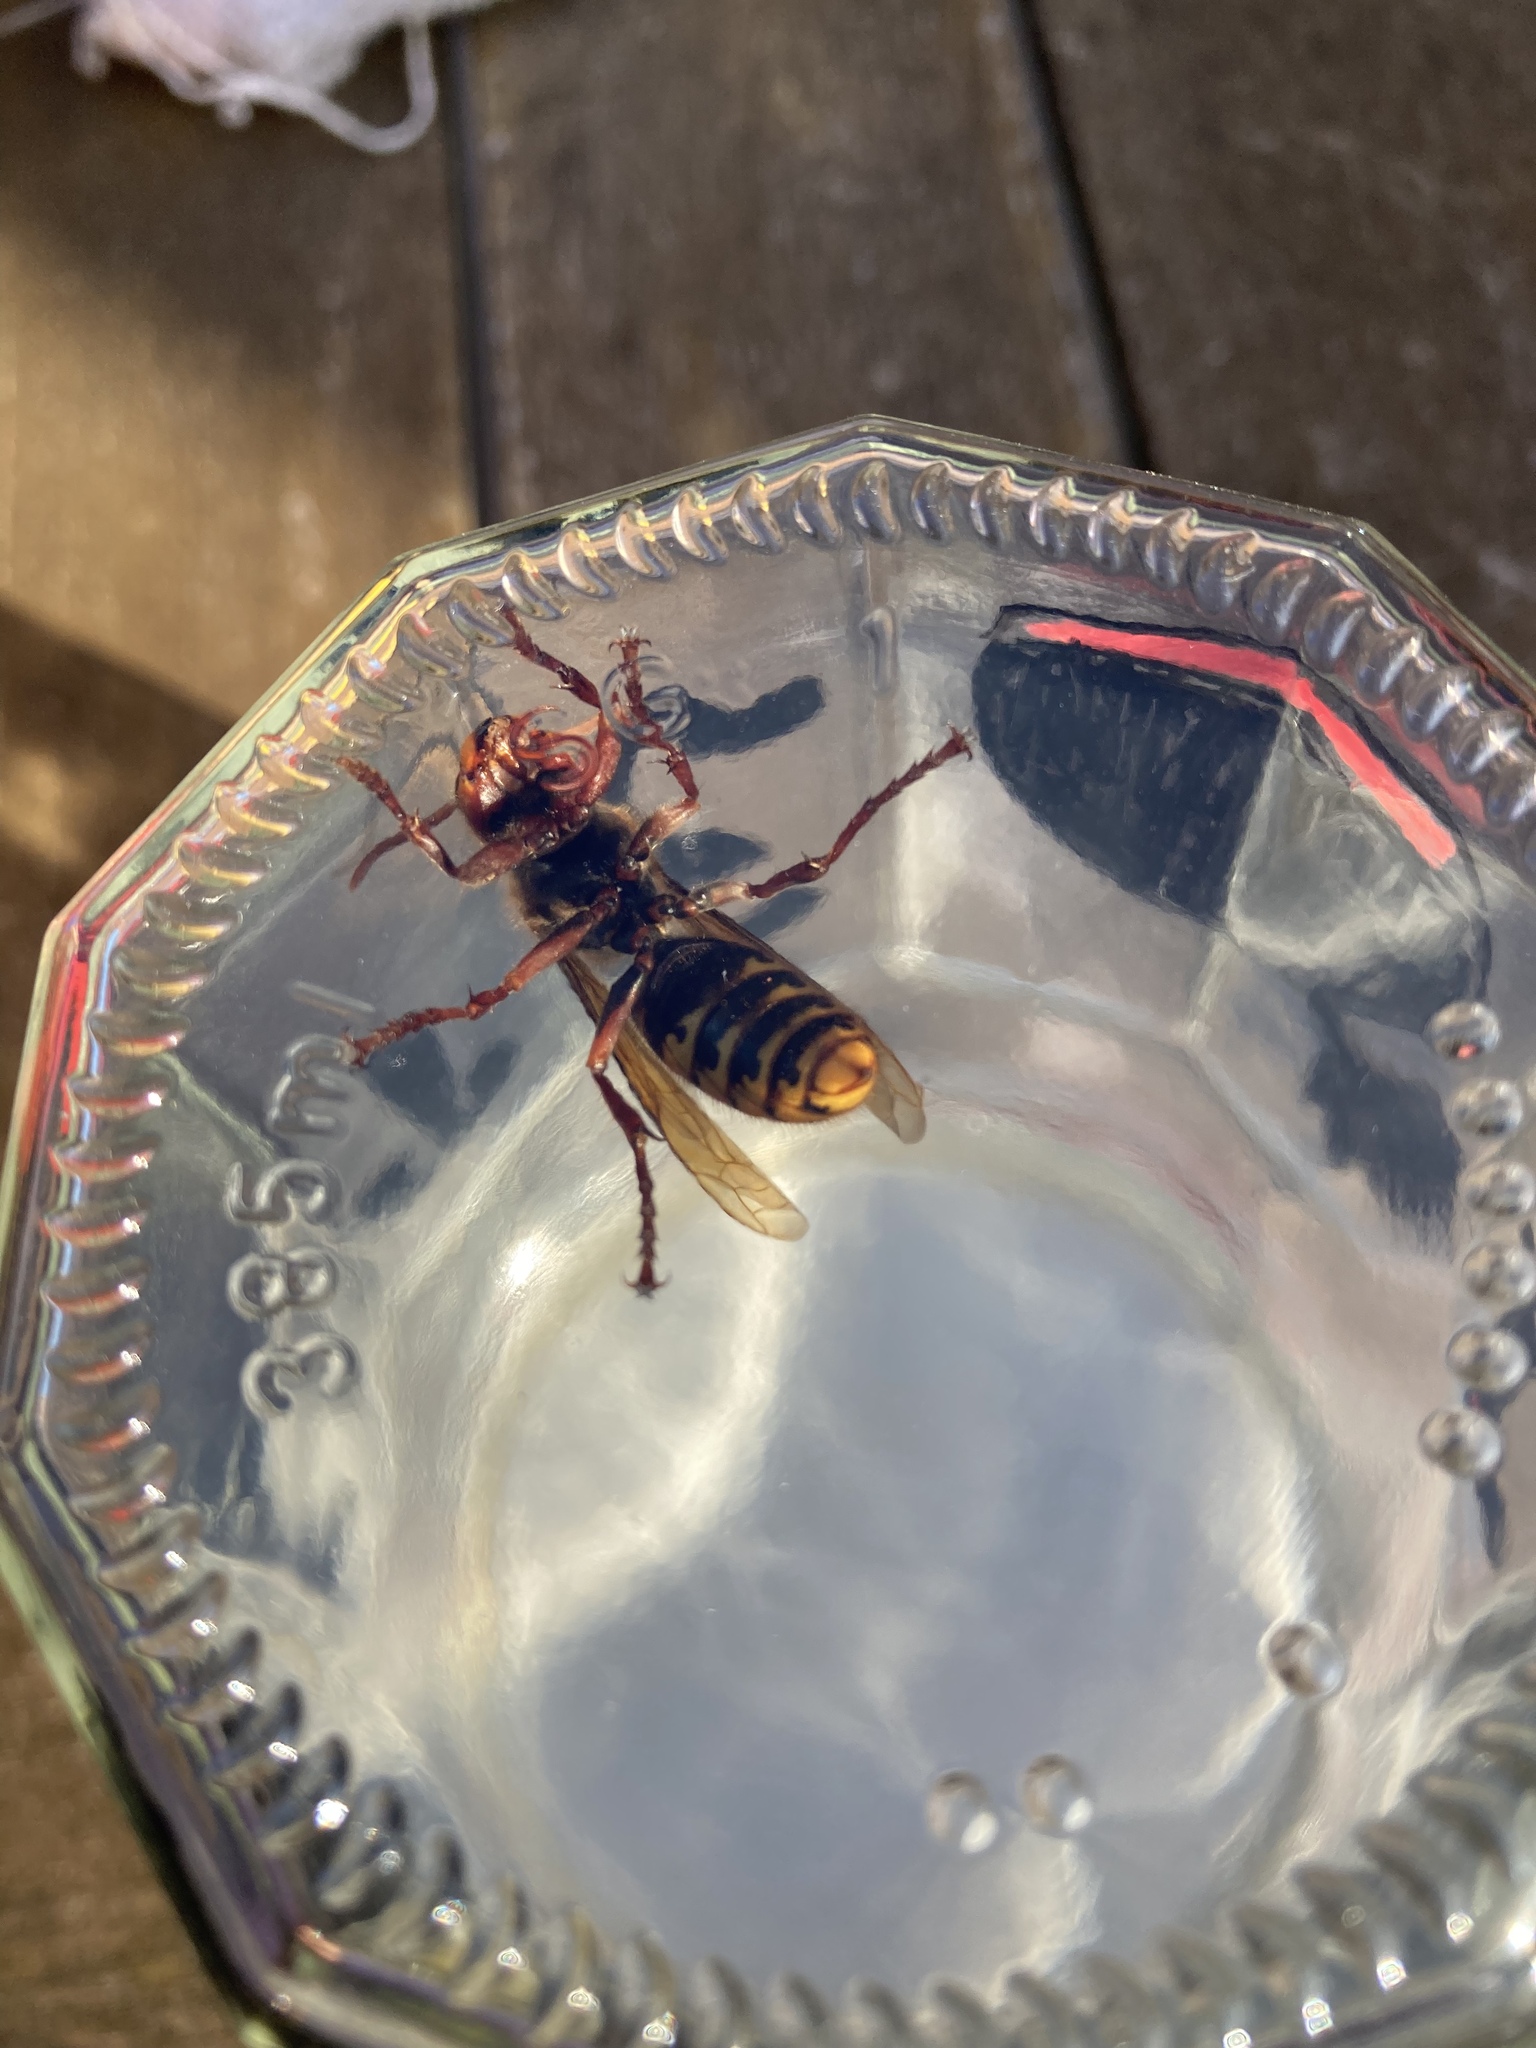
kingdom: Animalia
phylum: Arthropoda
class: Insecta
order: Hymenoptera
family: Vespidae
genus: Vespa
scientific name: Vespa crabro
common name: Hornet
